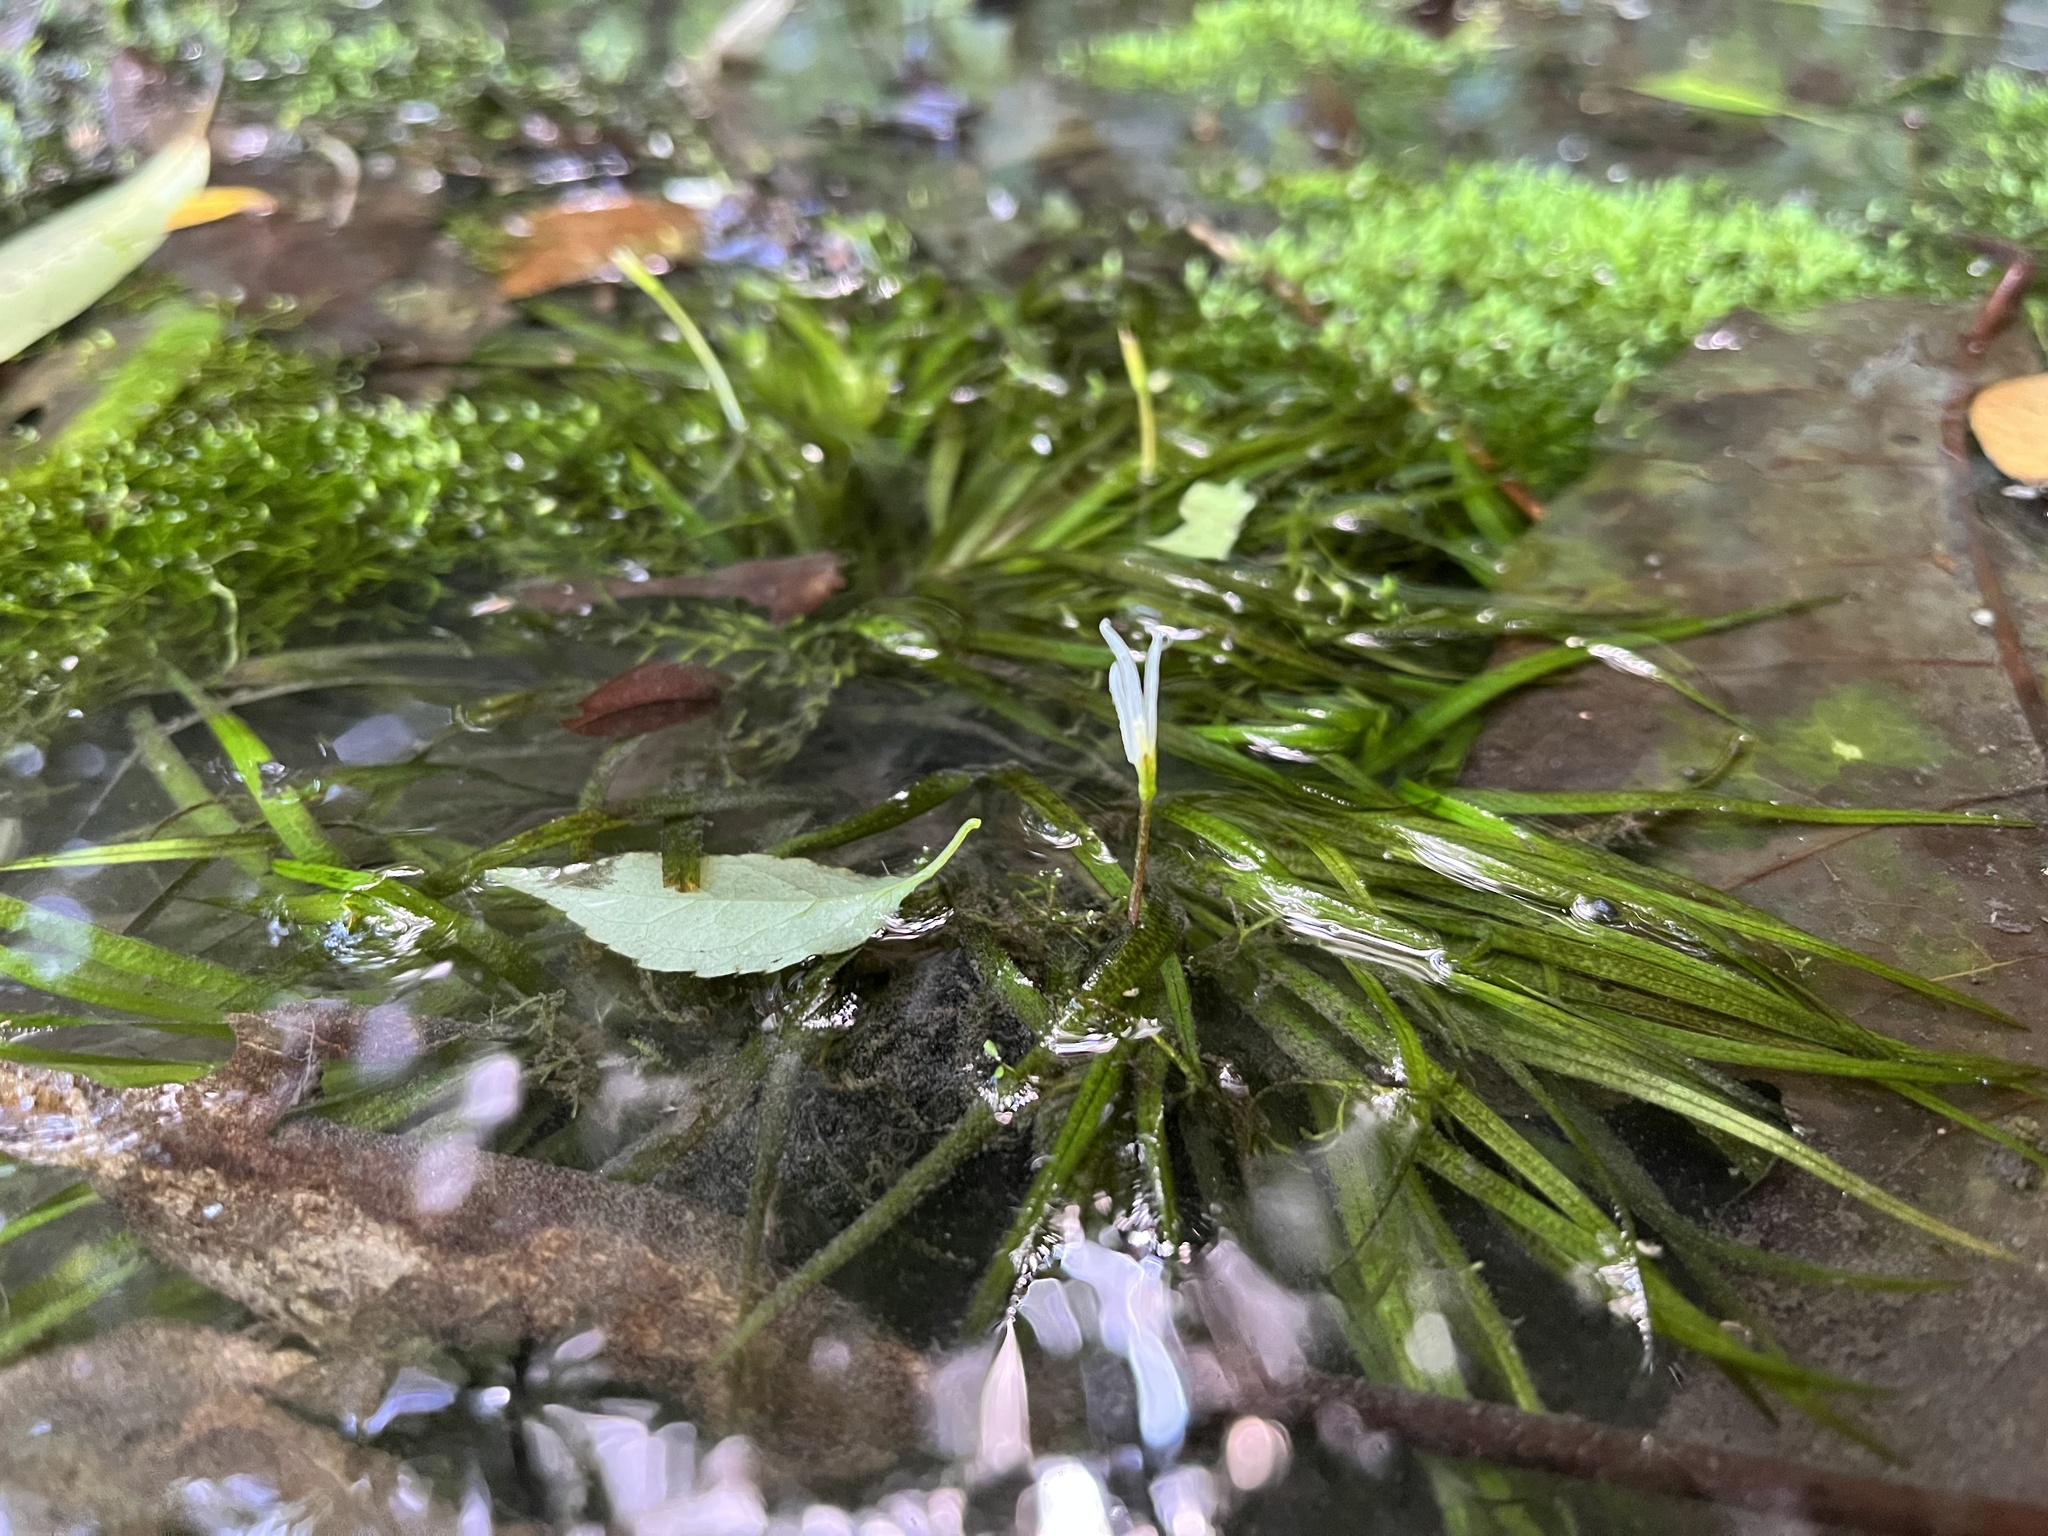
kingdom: Plantae
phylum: Tracheophyta
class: Liliopsida
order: Alismatales
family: Hydrocharitaceae
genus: Blyxa
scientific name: Blyxa japonica
